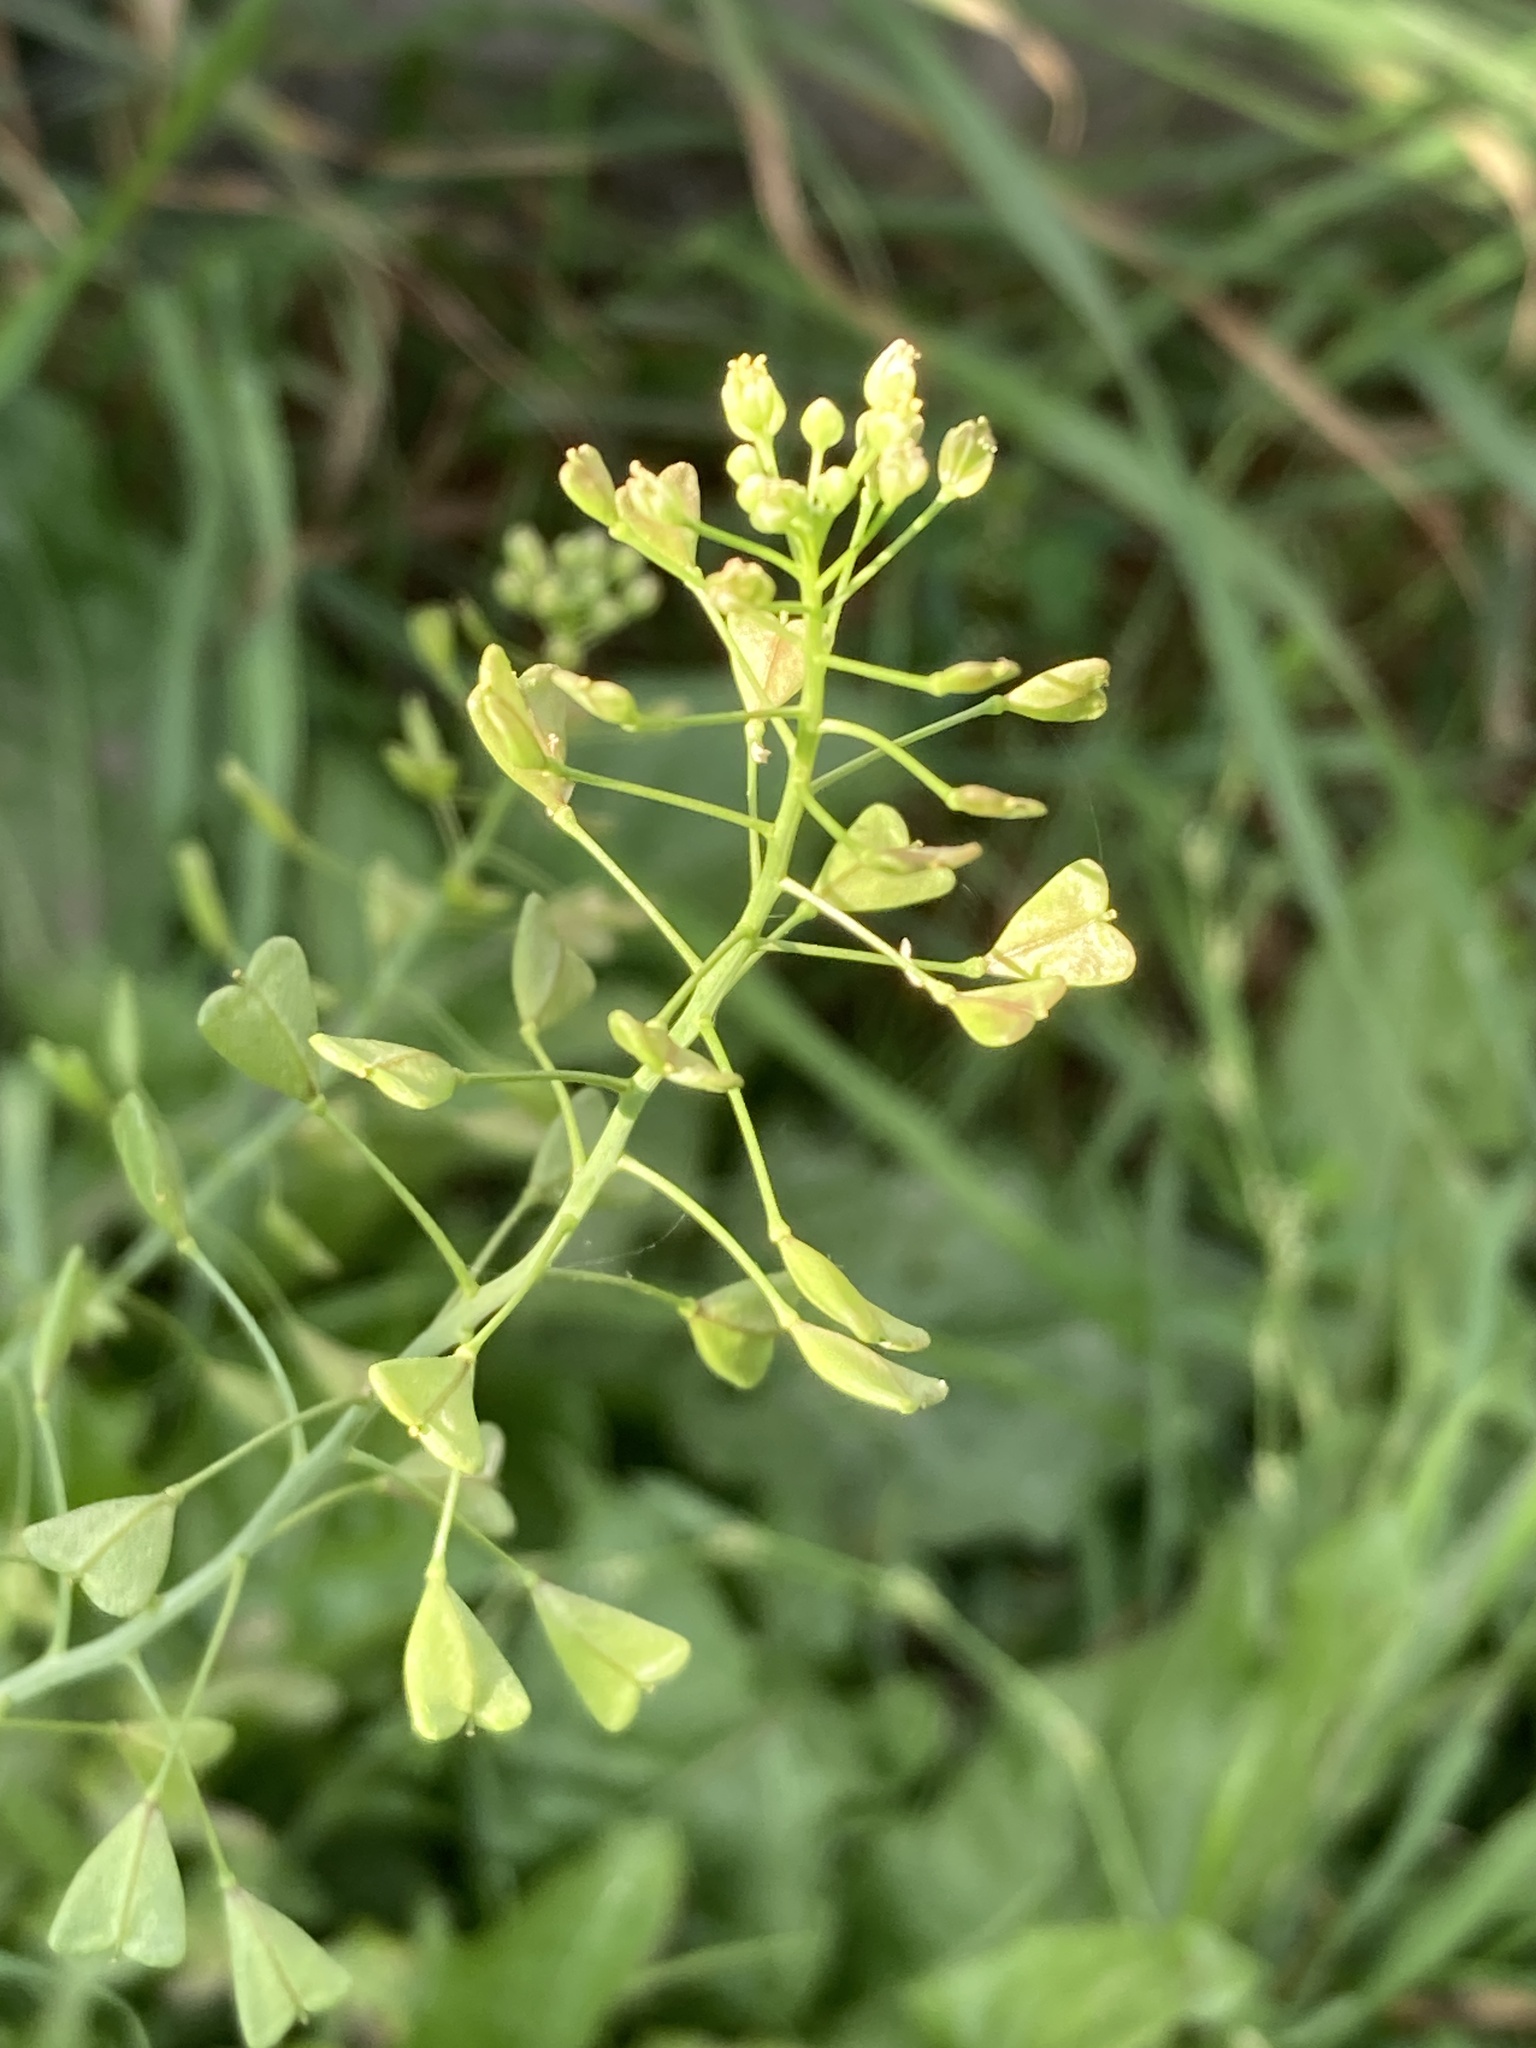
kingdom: Plantae
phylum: Tracheophyta
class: Magnoliopsida
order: Brassicales
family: Brassicaceae
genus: Capsella
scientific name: Capsella bursa-pastoris
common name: Shepherd's purse
